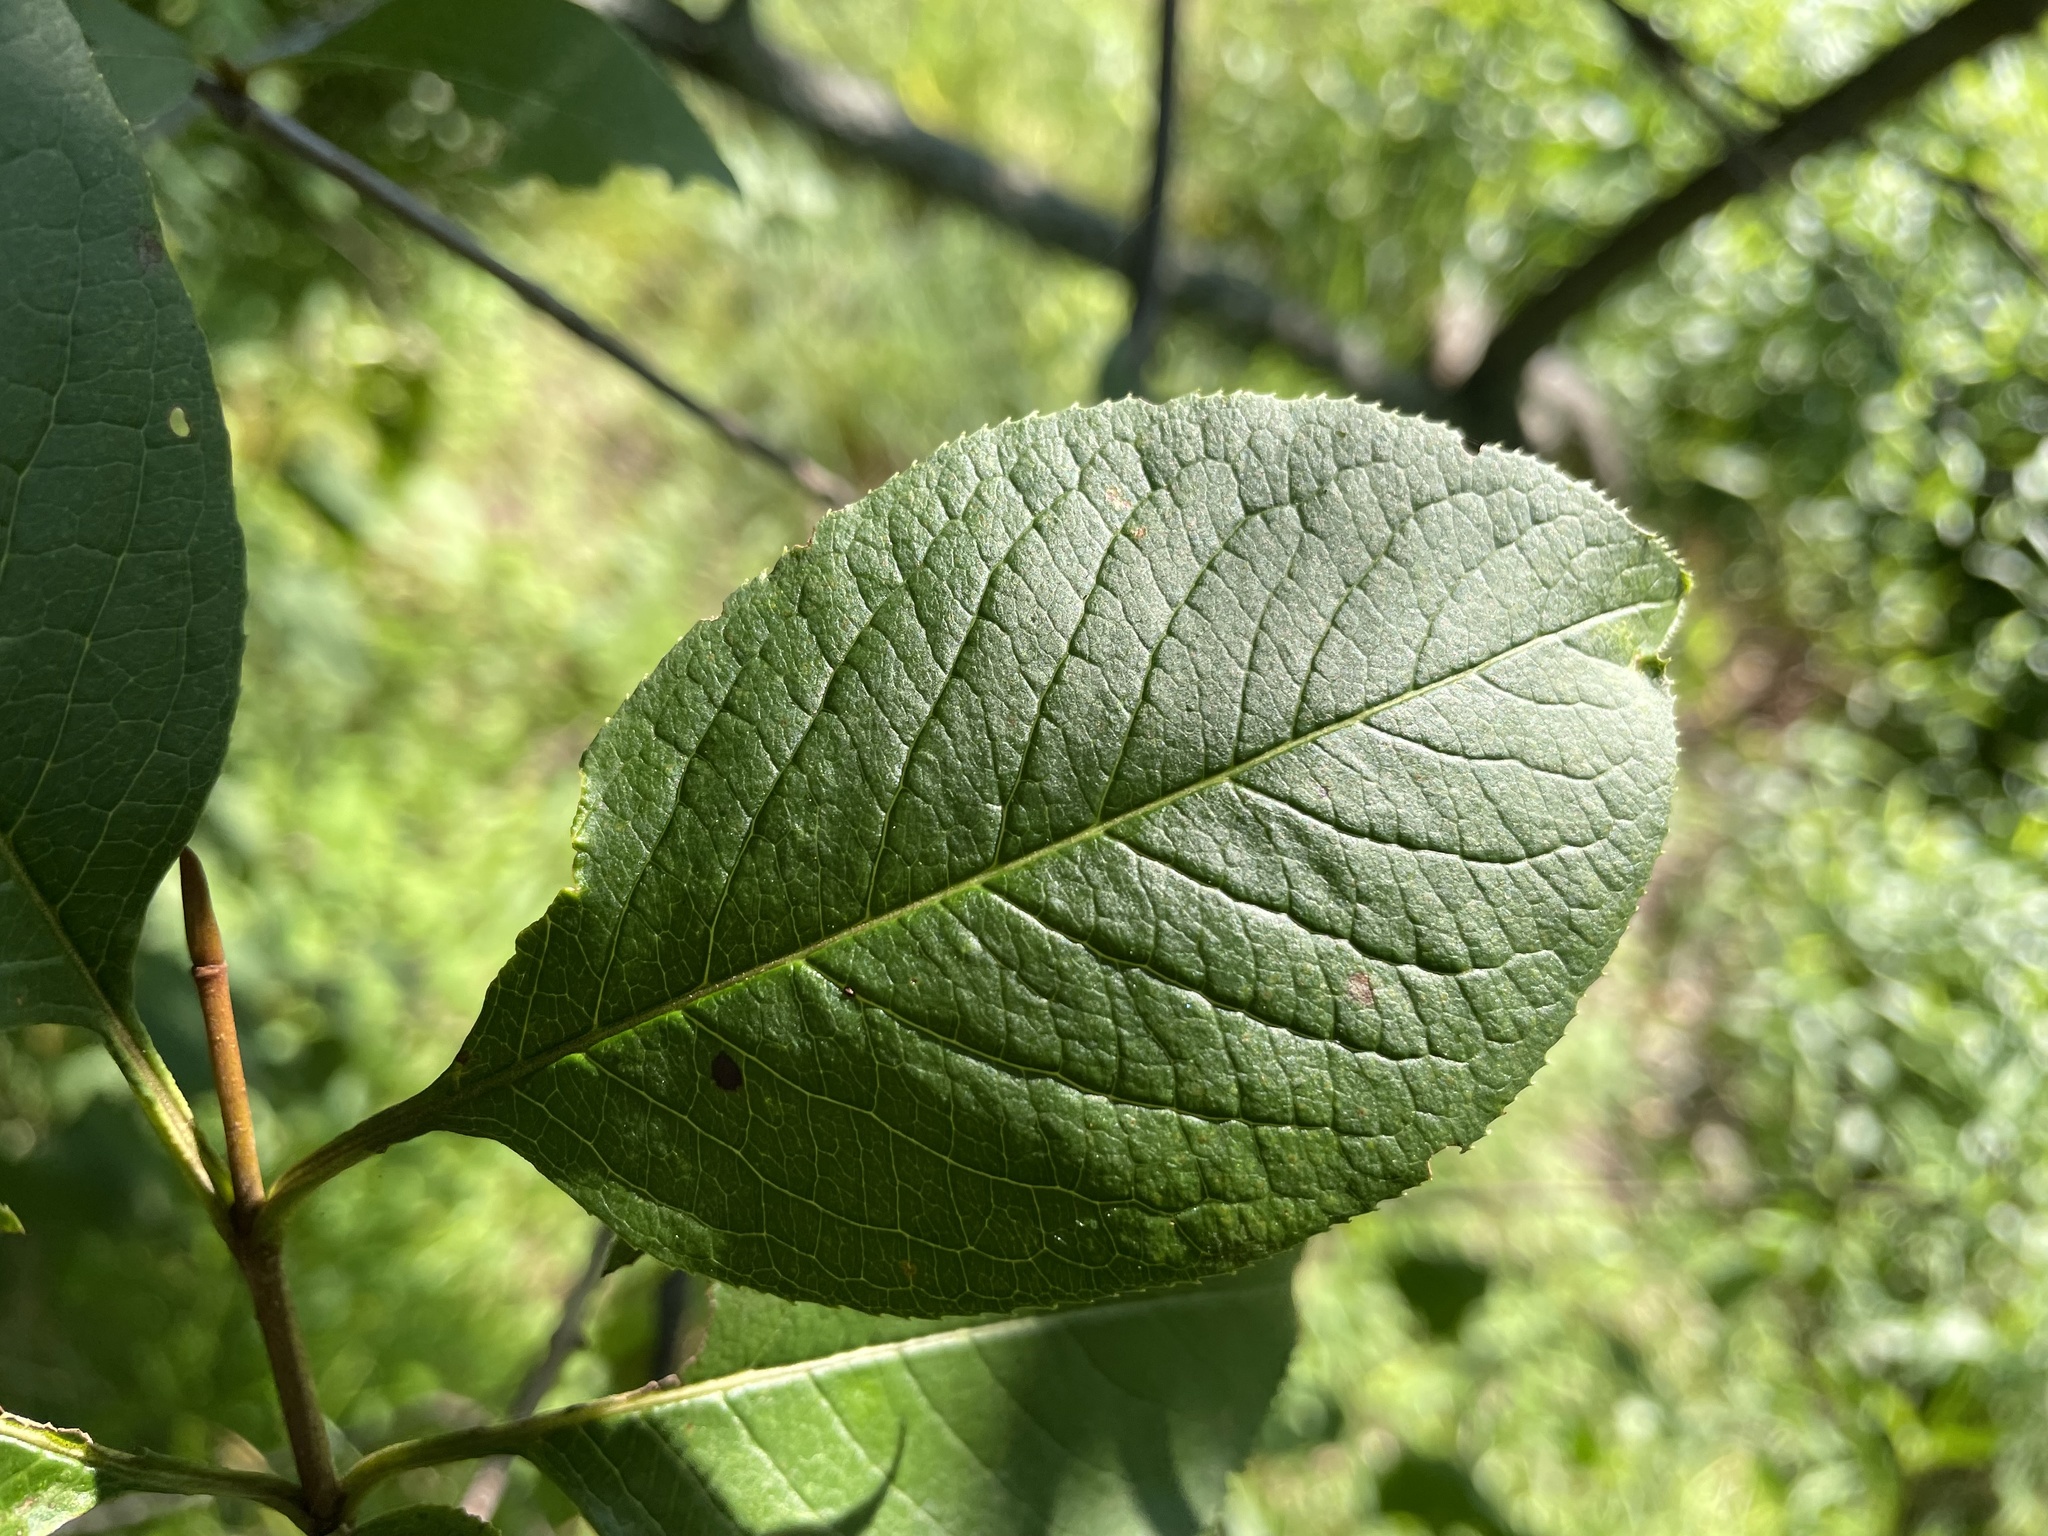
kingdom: Plantae
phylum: Tracheophyta
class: Magnoliopsida
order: Dipsacales
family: Viburnaceae
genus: Viburnum
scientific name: Viburnum lentago
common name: Black haw
